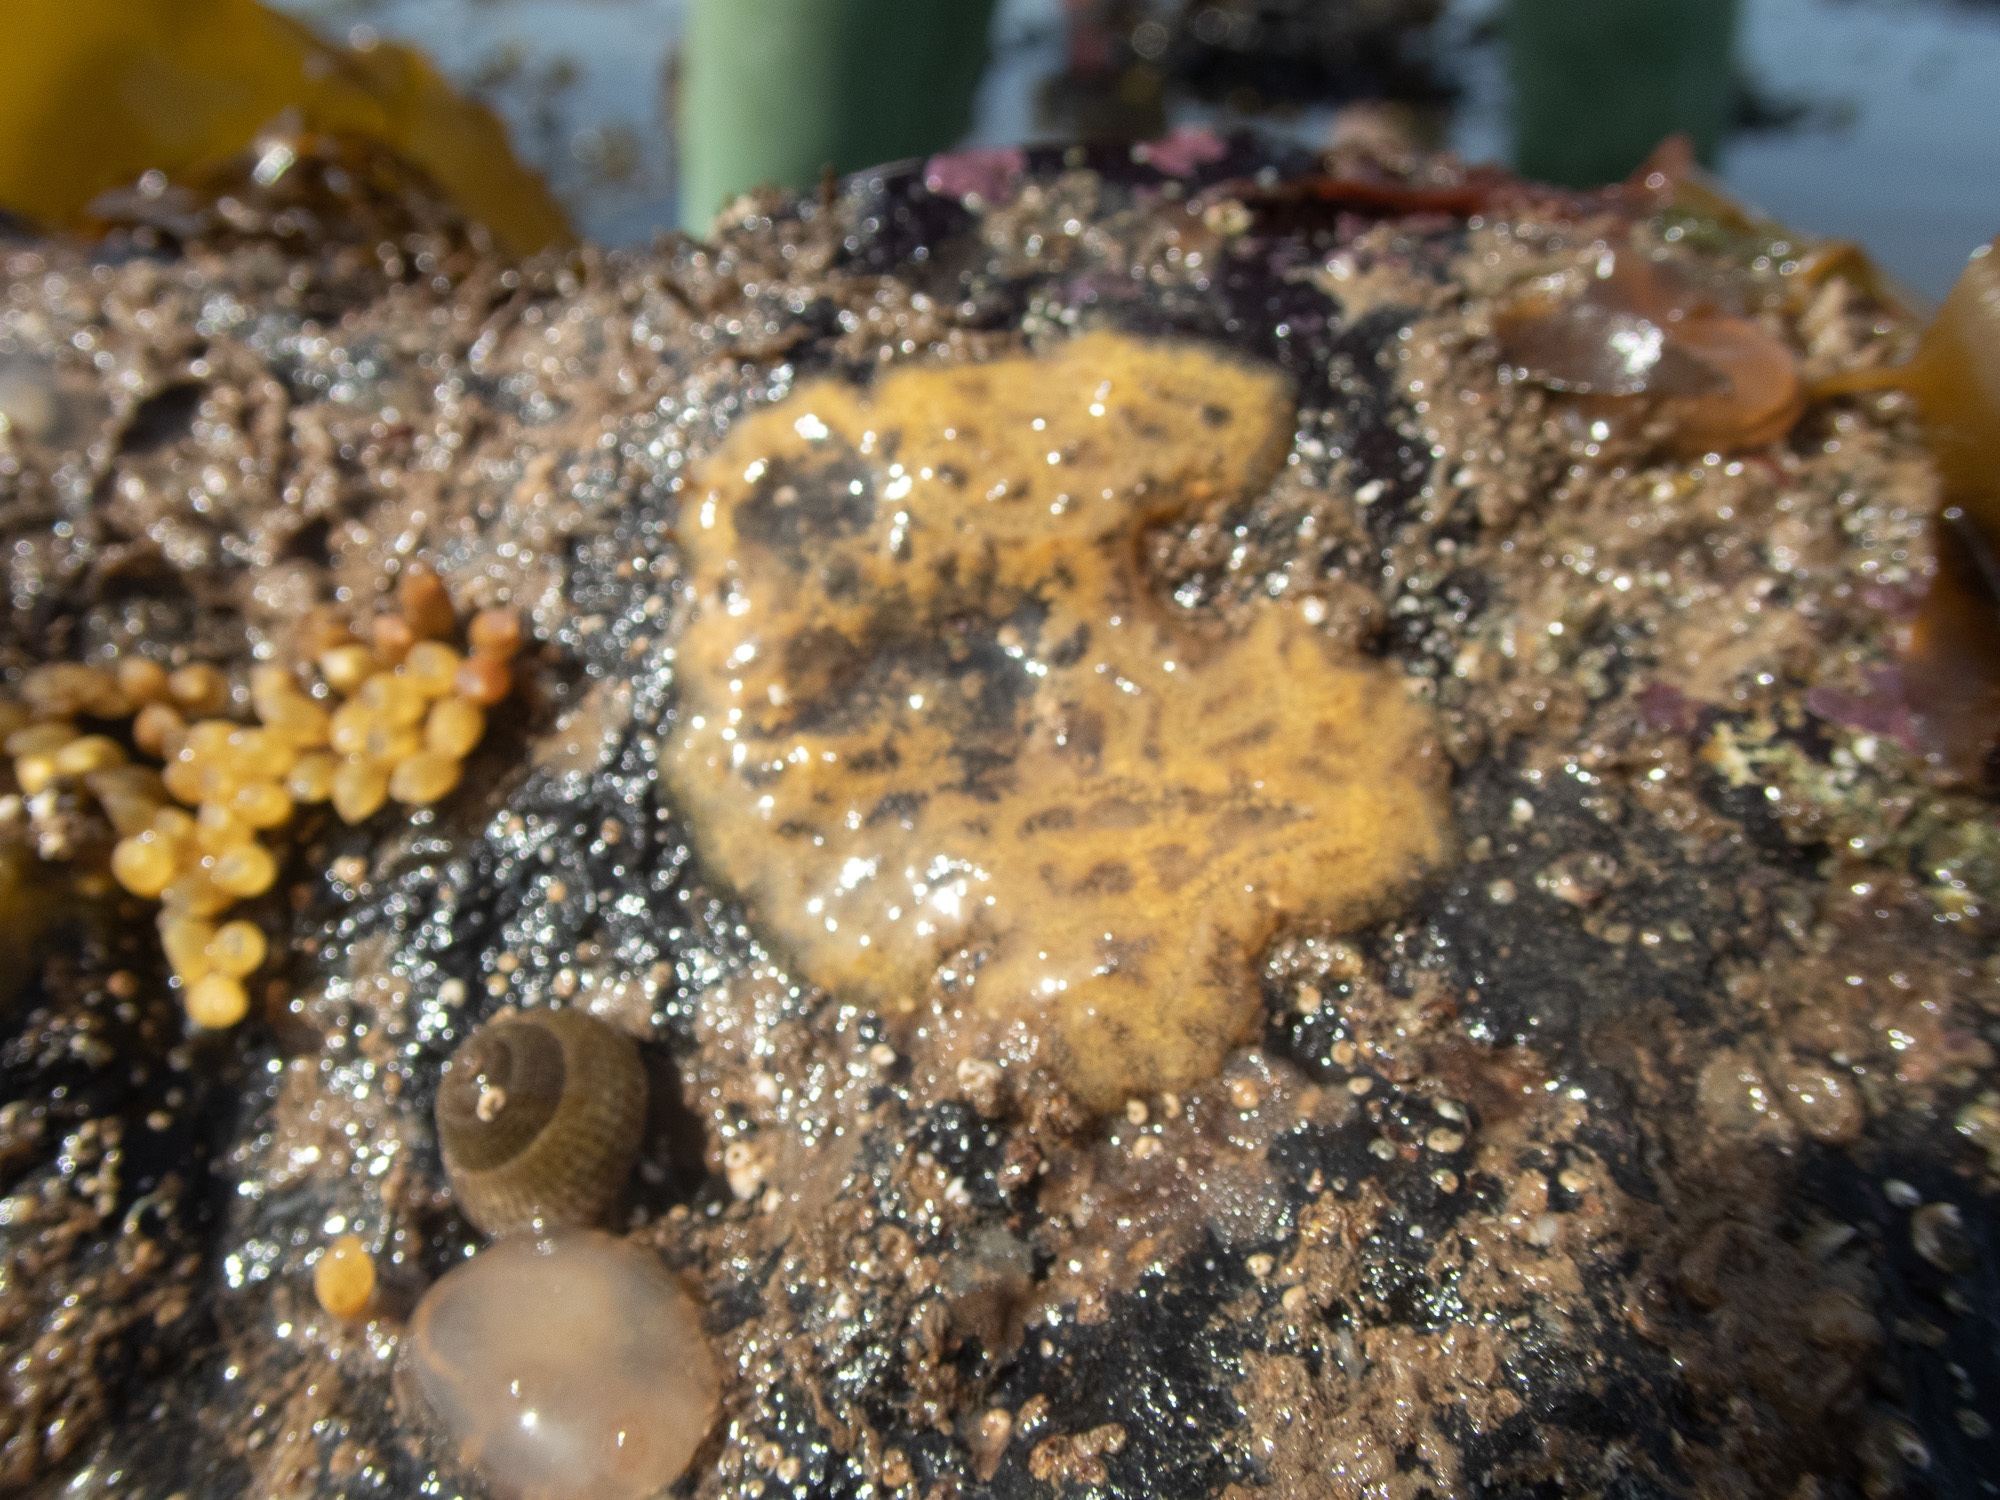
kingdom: Animalia
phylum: Chordata
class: Ascidiacea
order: Stolidobranchia
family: Styelidae
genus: Botrylloides
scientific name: Botrylloides leachii
